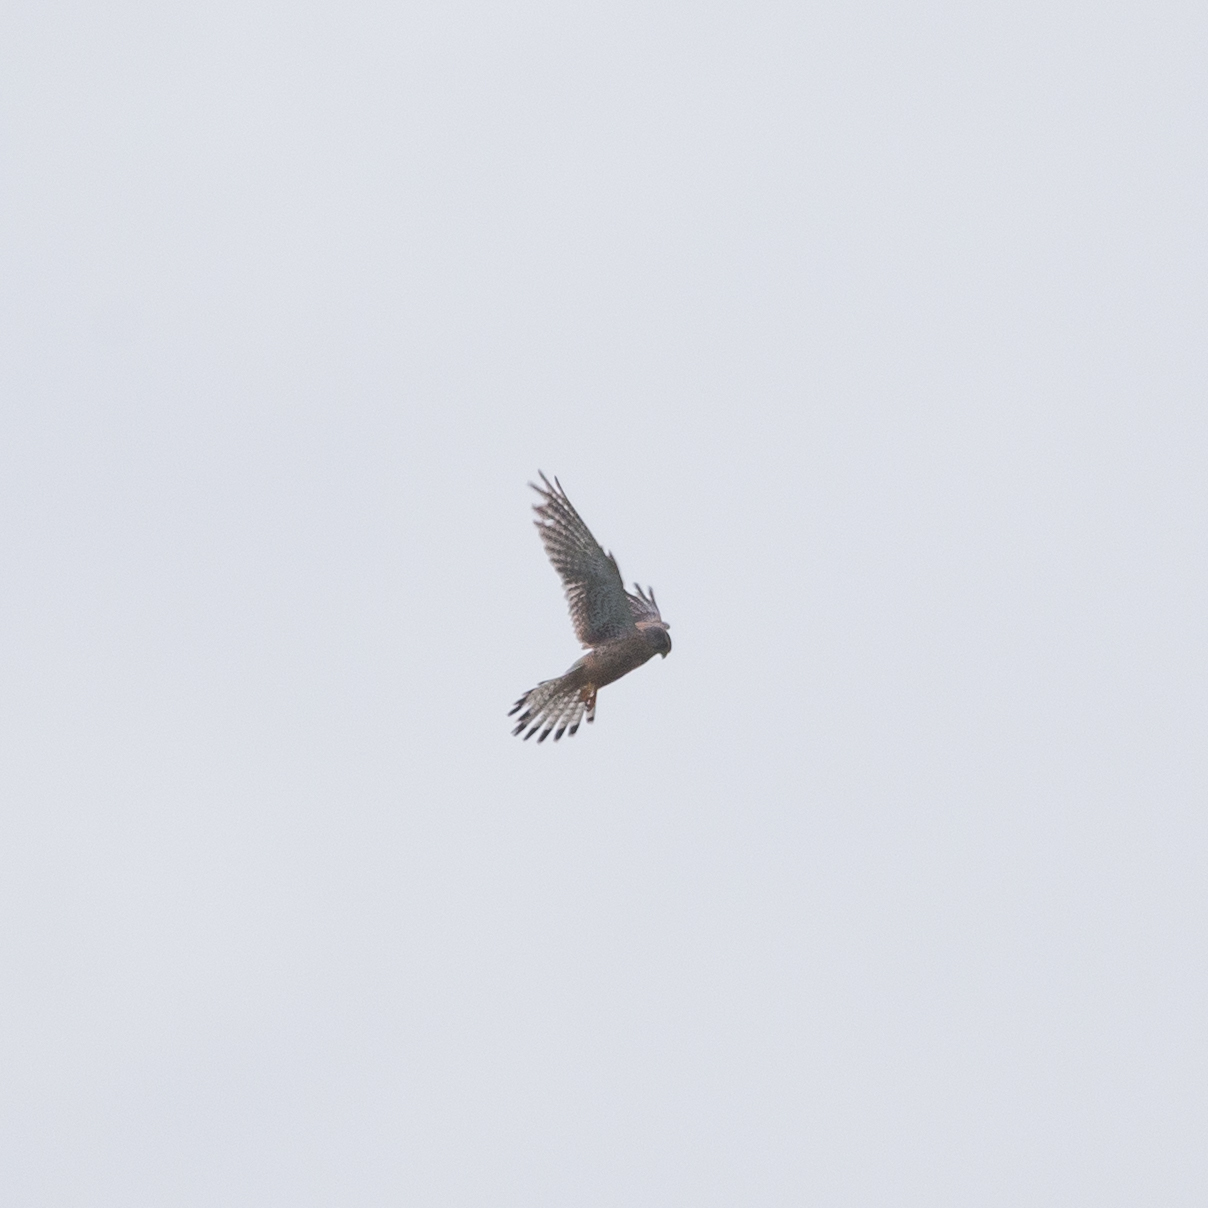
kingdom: Animalia
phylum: Chordata
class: Aves
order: Falconiformes
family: Falconidae
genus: Falco
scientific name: Falco tinnunculus
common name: Common kestrel
